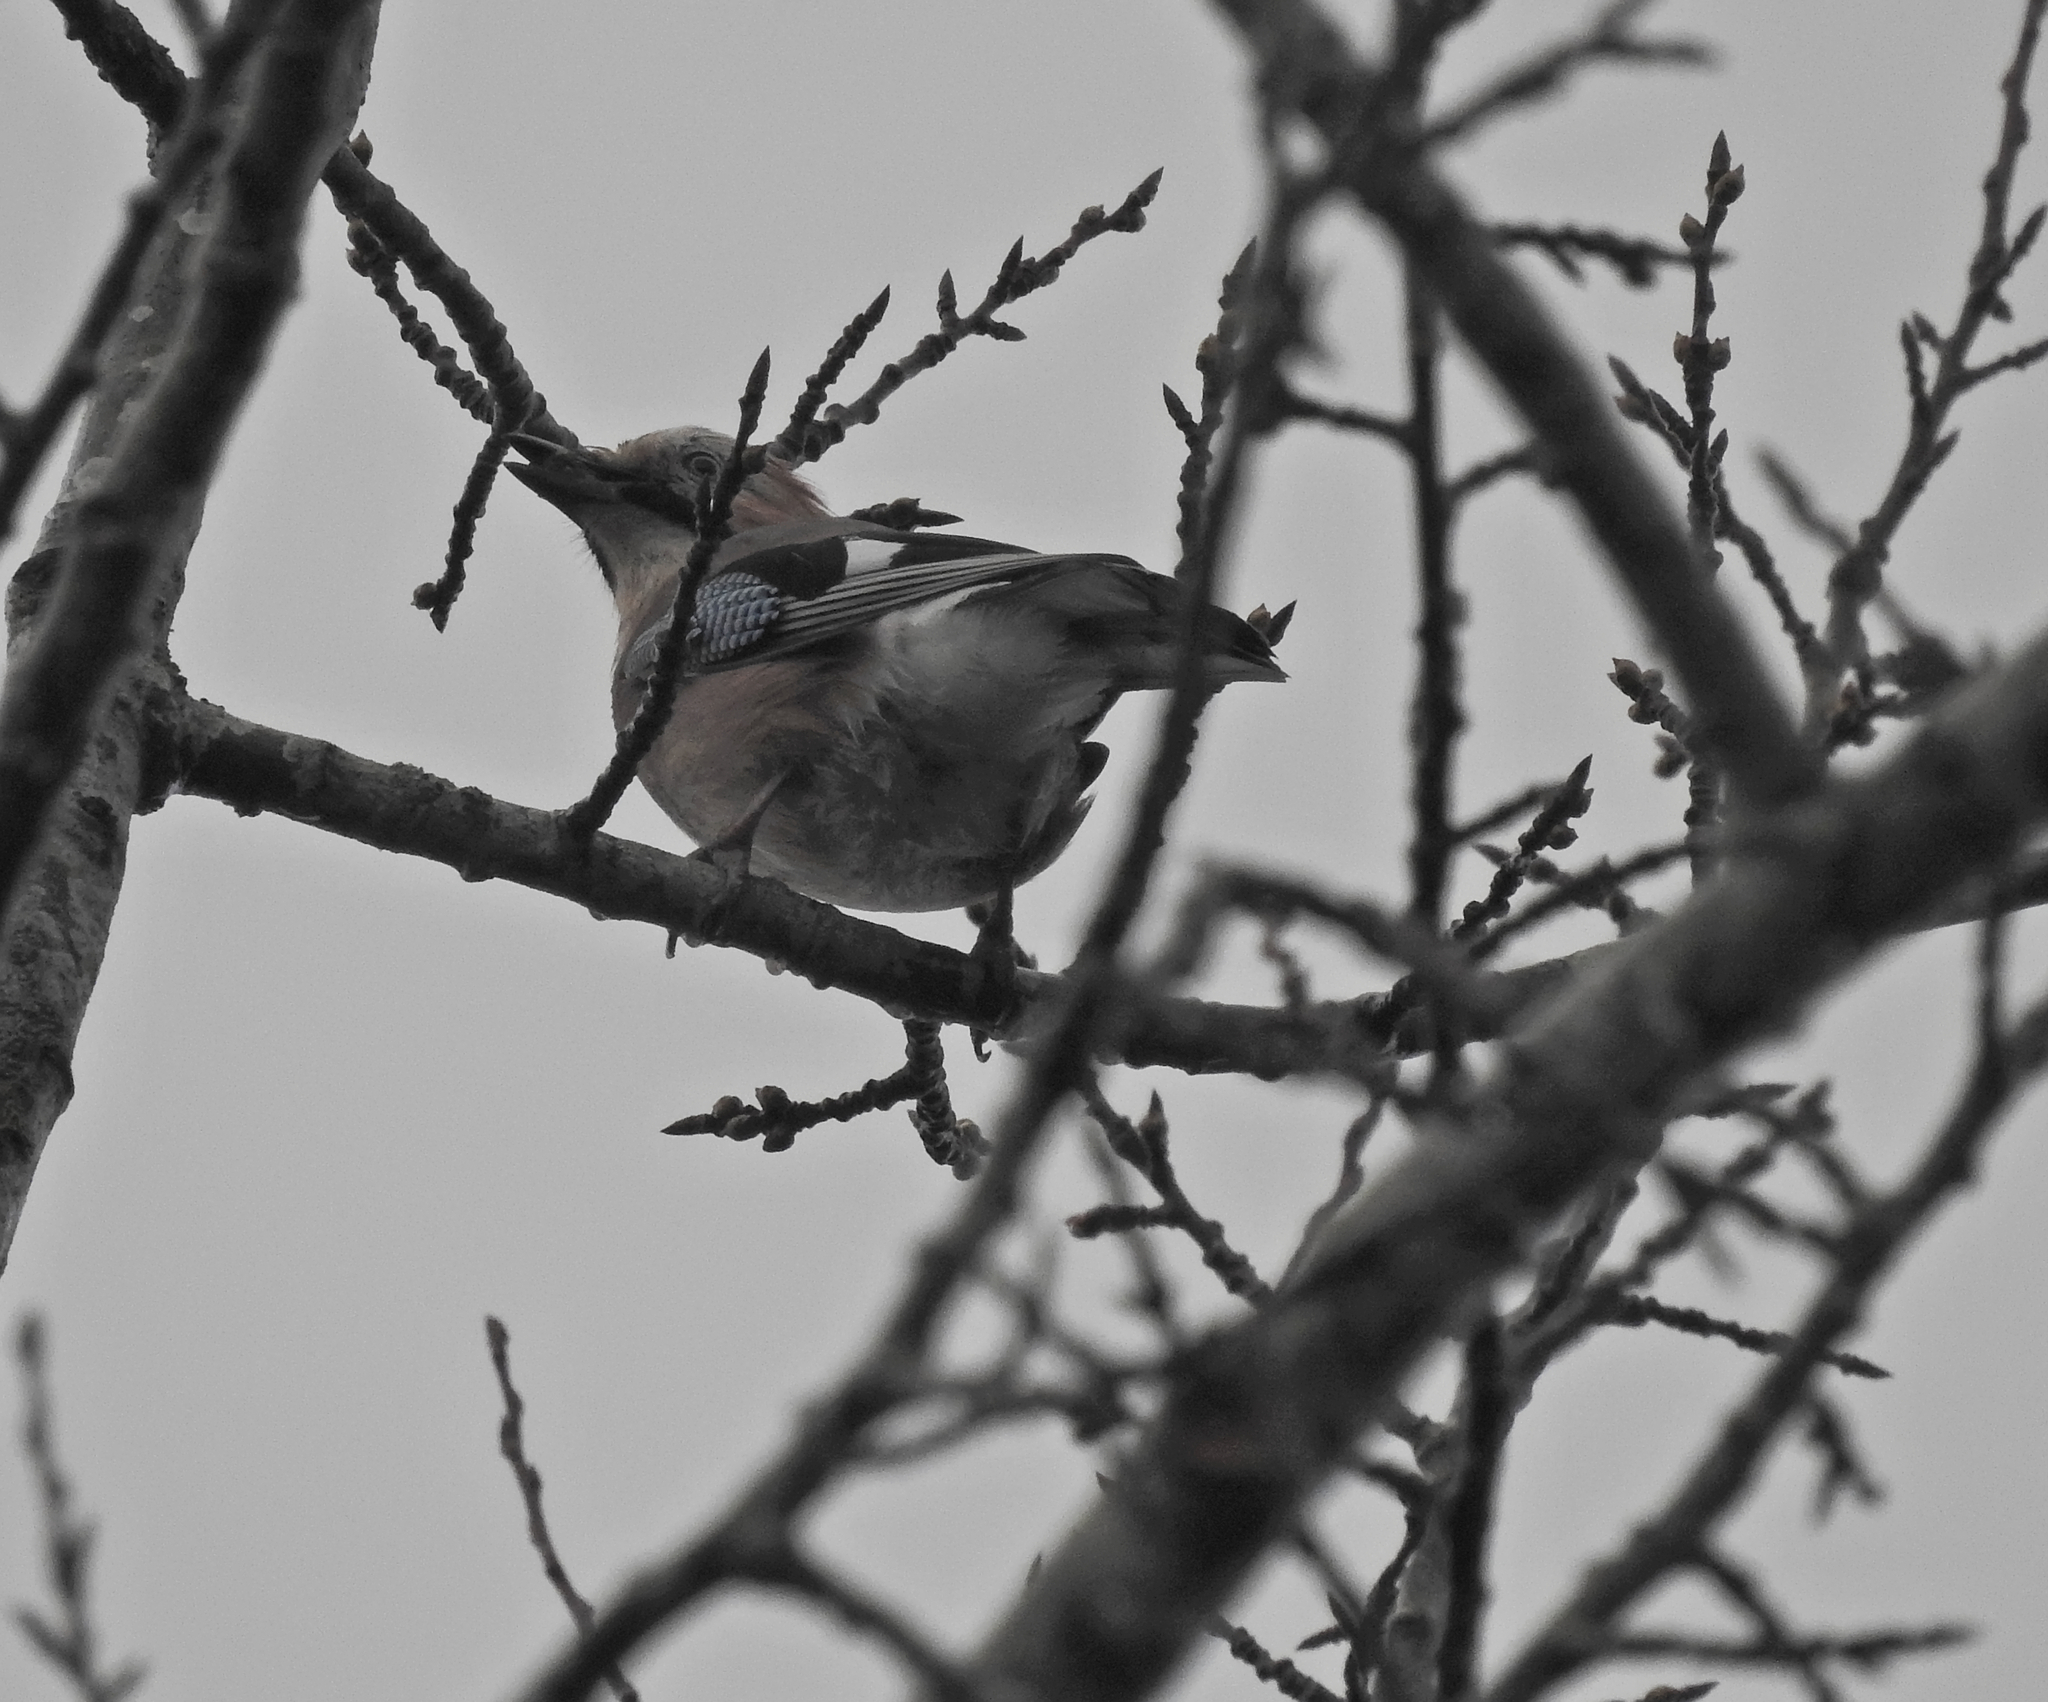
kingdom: Animalia
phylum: Chordata
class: Aves
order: Passeriformes
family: Corvidae
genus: Garrulus
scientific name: Garrulus glandarius
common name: Eurasian jay
